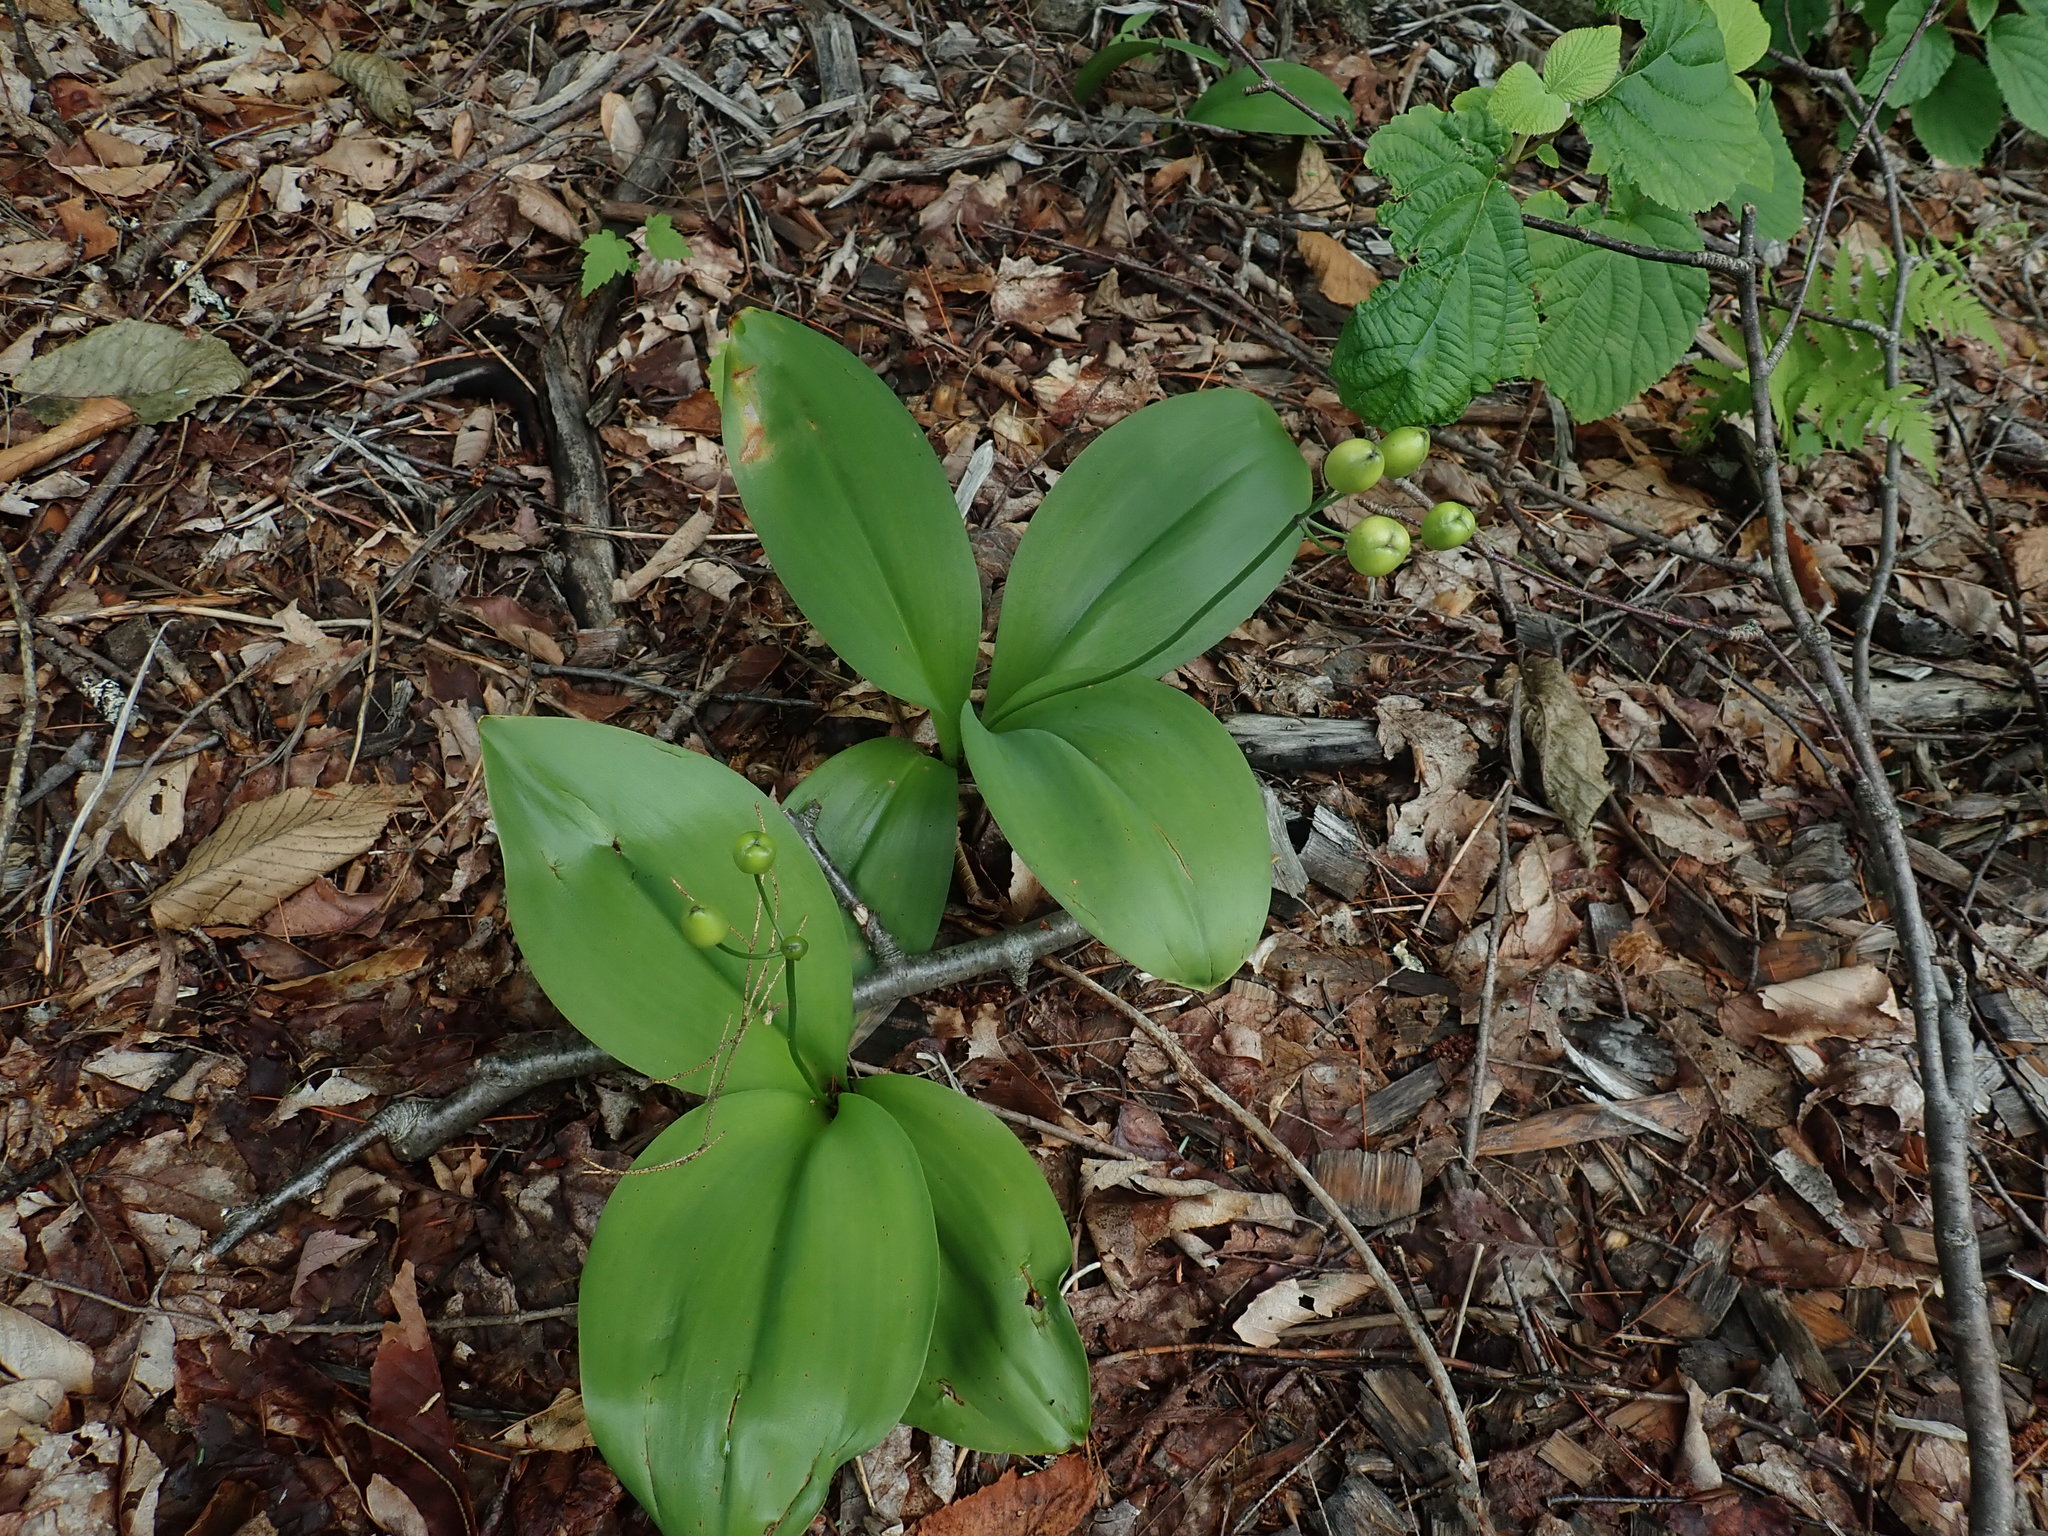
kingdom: Plantae
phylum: Tracheophyta
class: Liliopsida
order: Liliales
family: Liliaceae
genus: Clintonia
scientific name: Clintonia borealis
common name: Yellow clintonia
